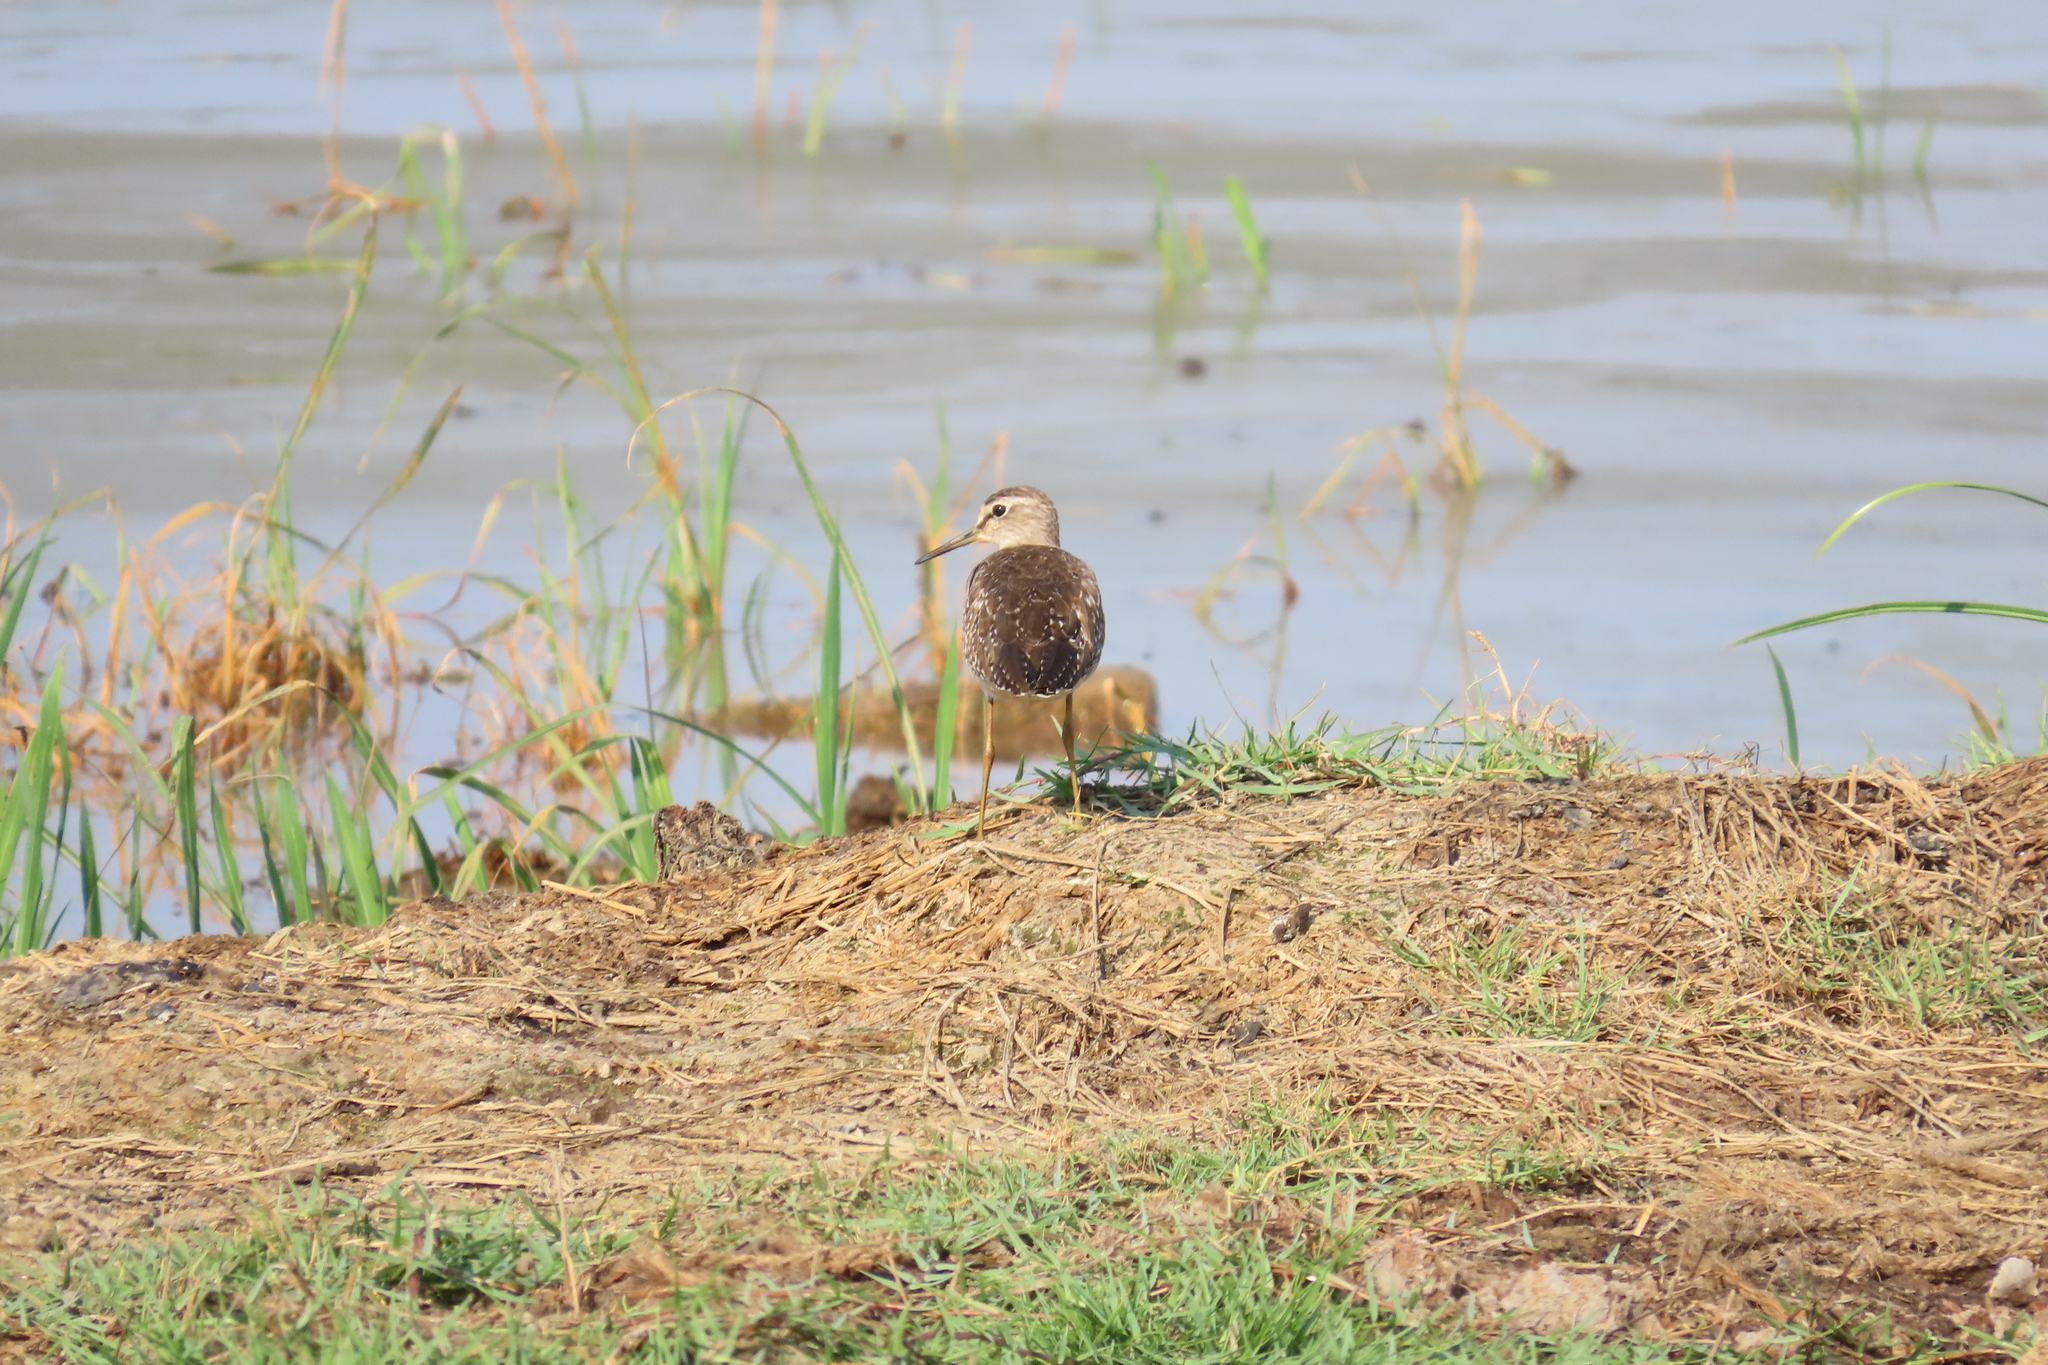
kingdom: Animalia
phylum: Chordata
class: Aves
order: Charadriiformes
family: Scolopacidae
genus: Tringa
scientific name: Tringa glareola
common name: Wood sandpiper
